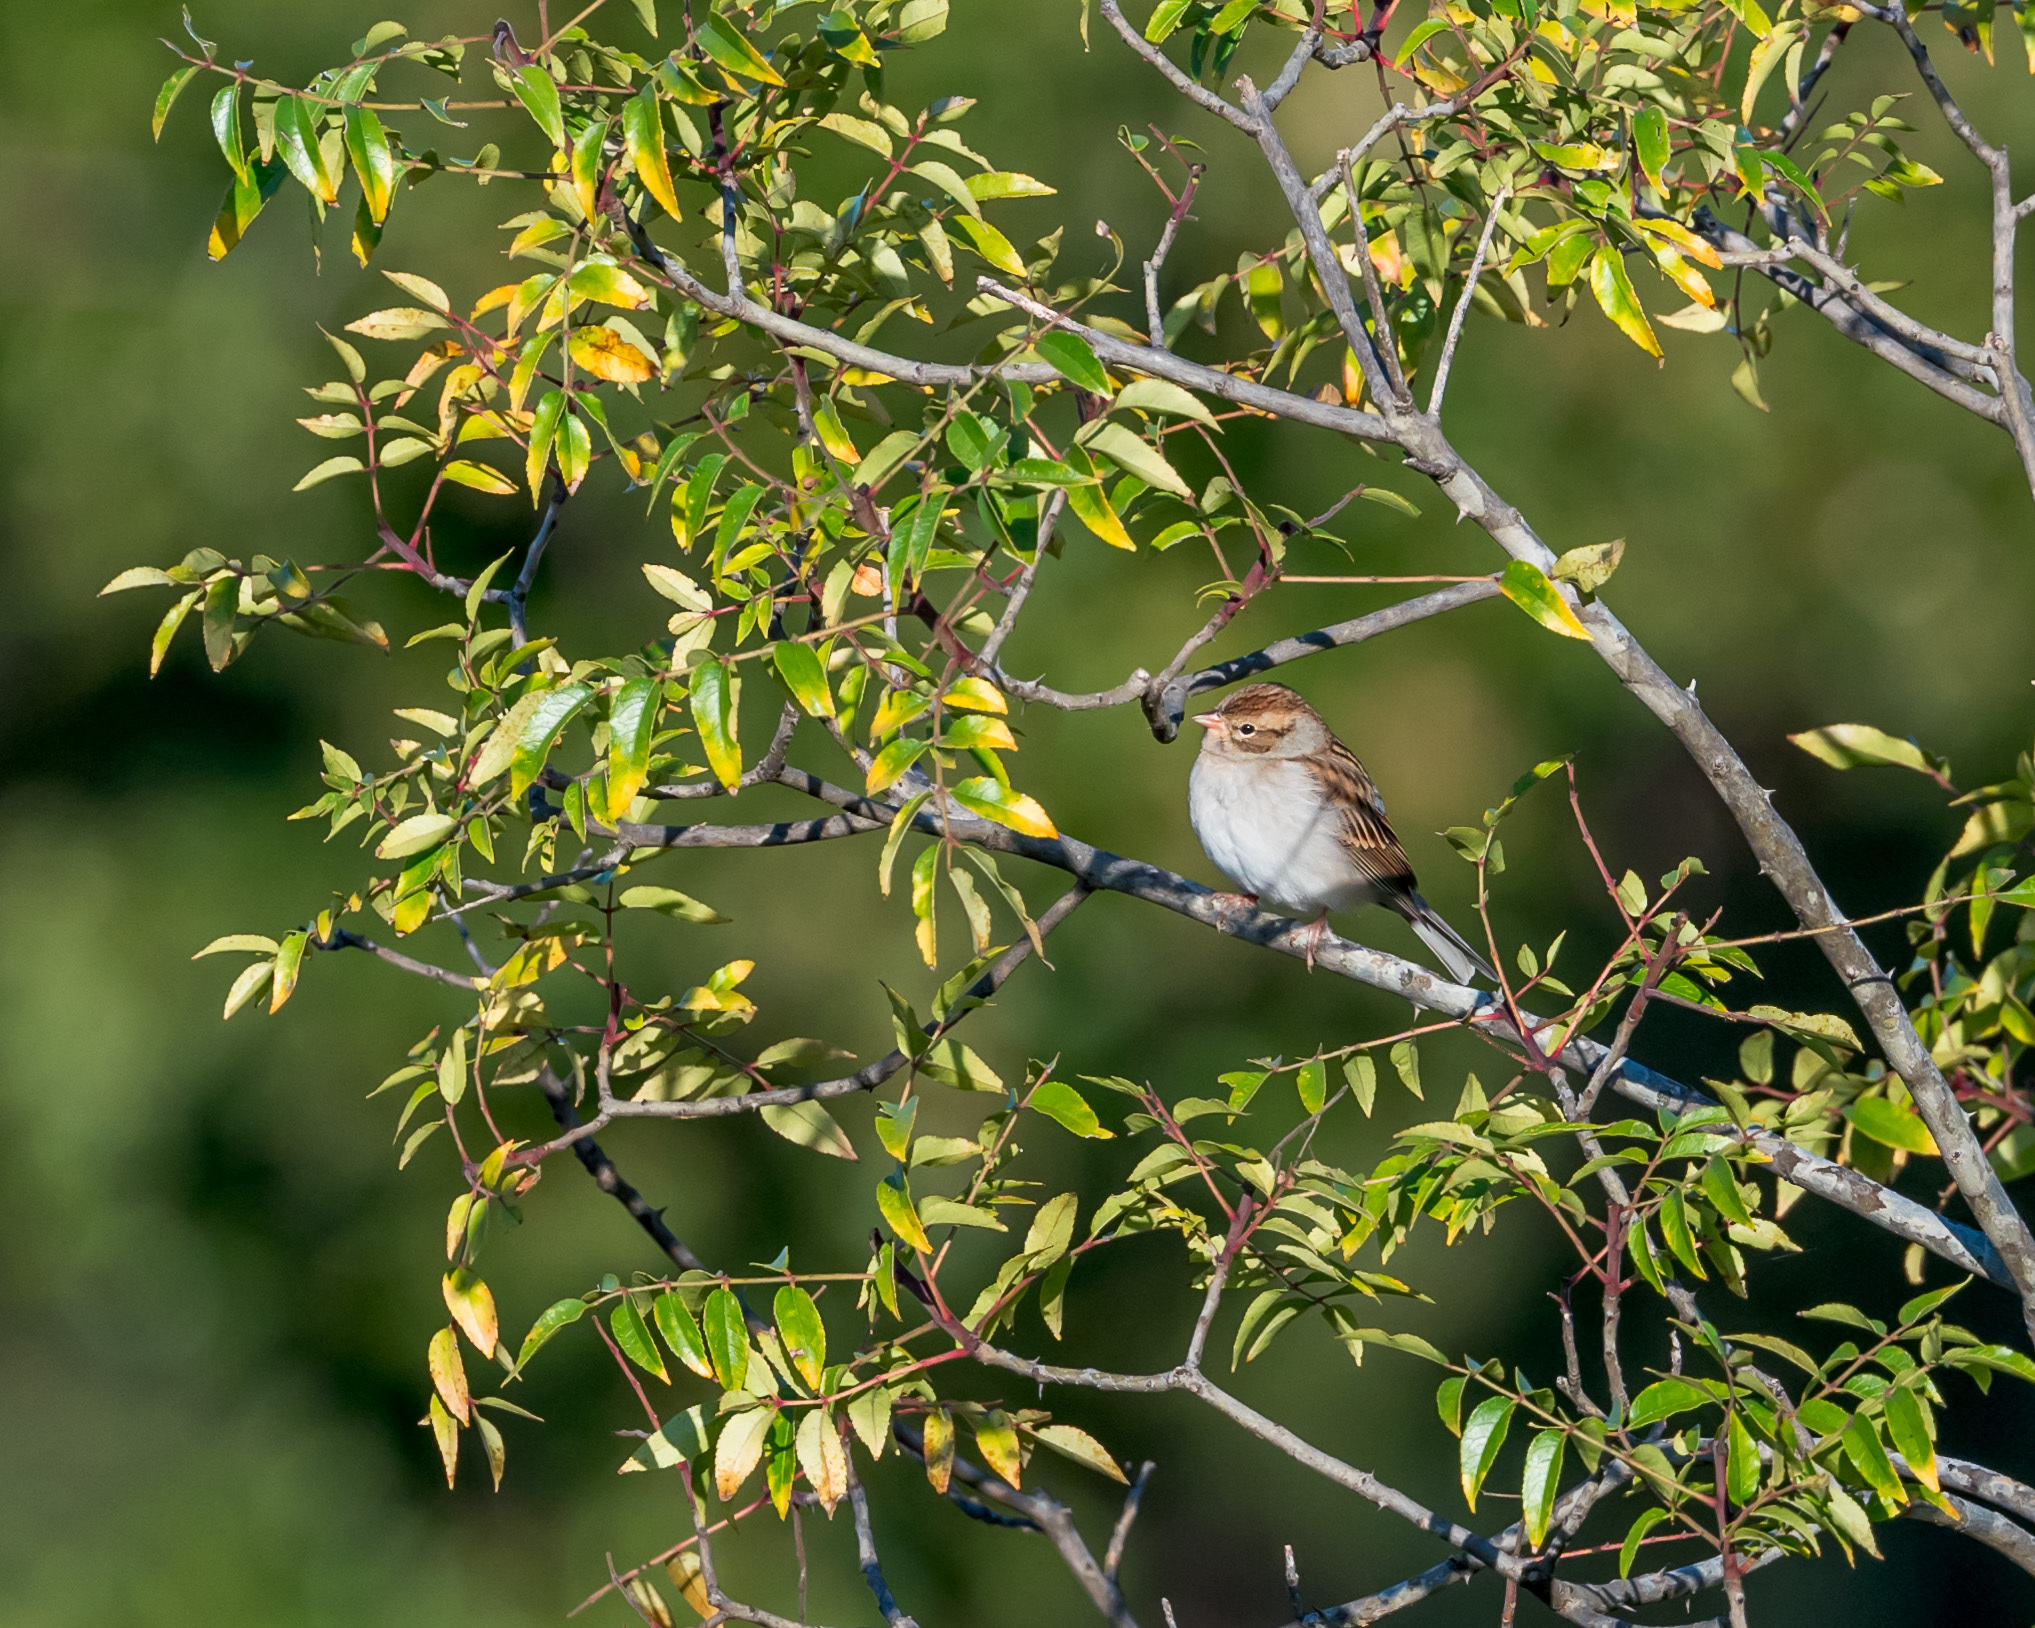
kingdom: Animalia
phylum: Chordata
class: Aves
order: Passeriformes
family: Passerellidae
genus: Spizella
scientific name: Spizella pusilla
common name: Field sparrow
